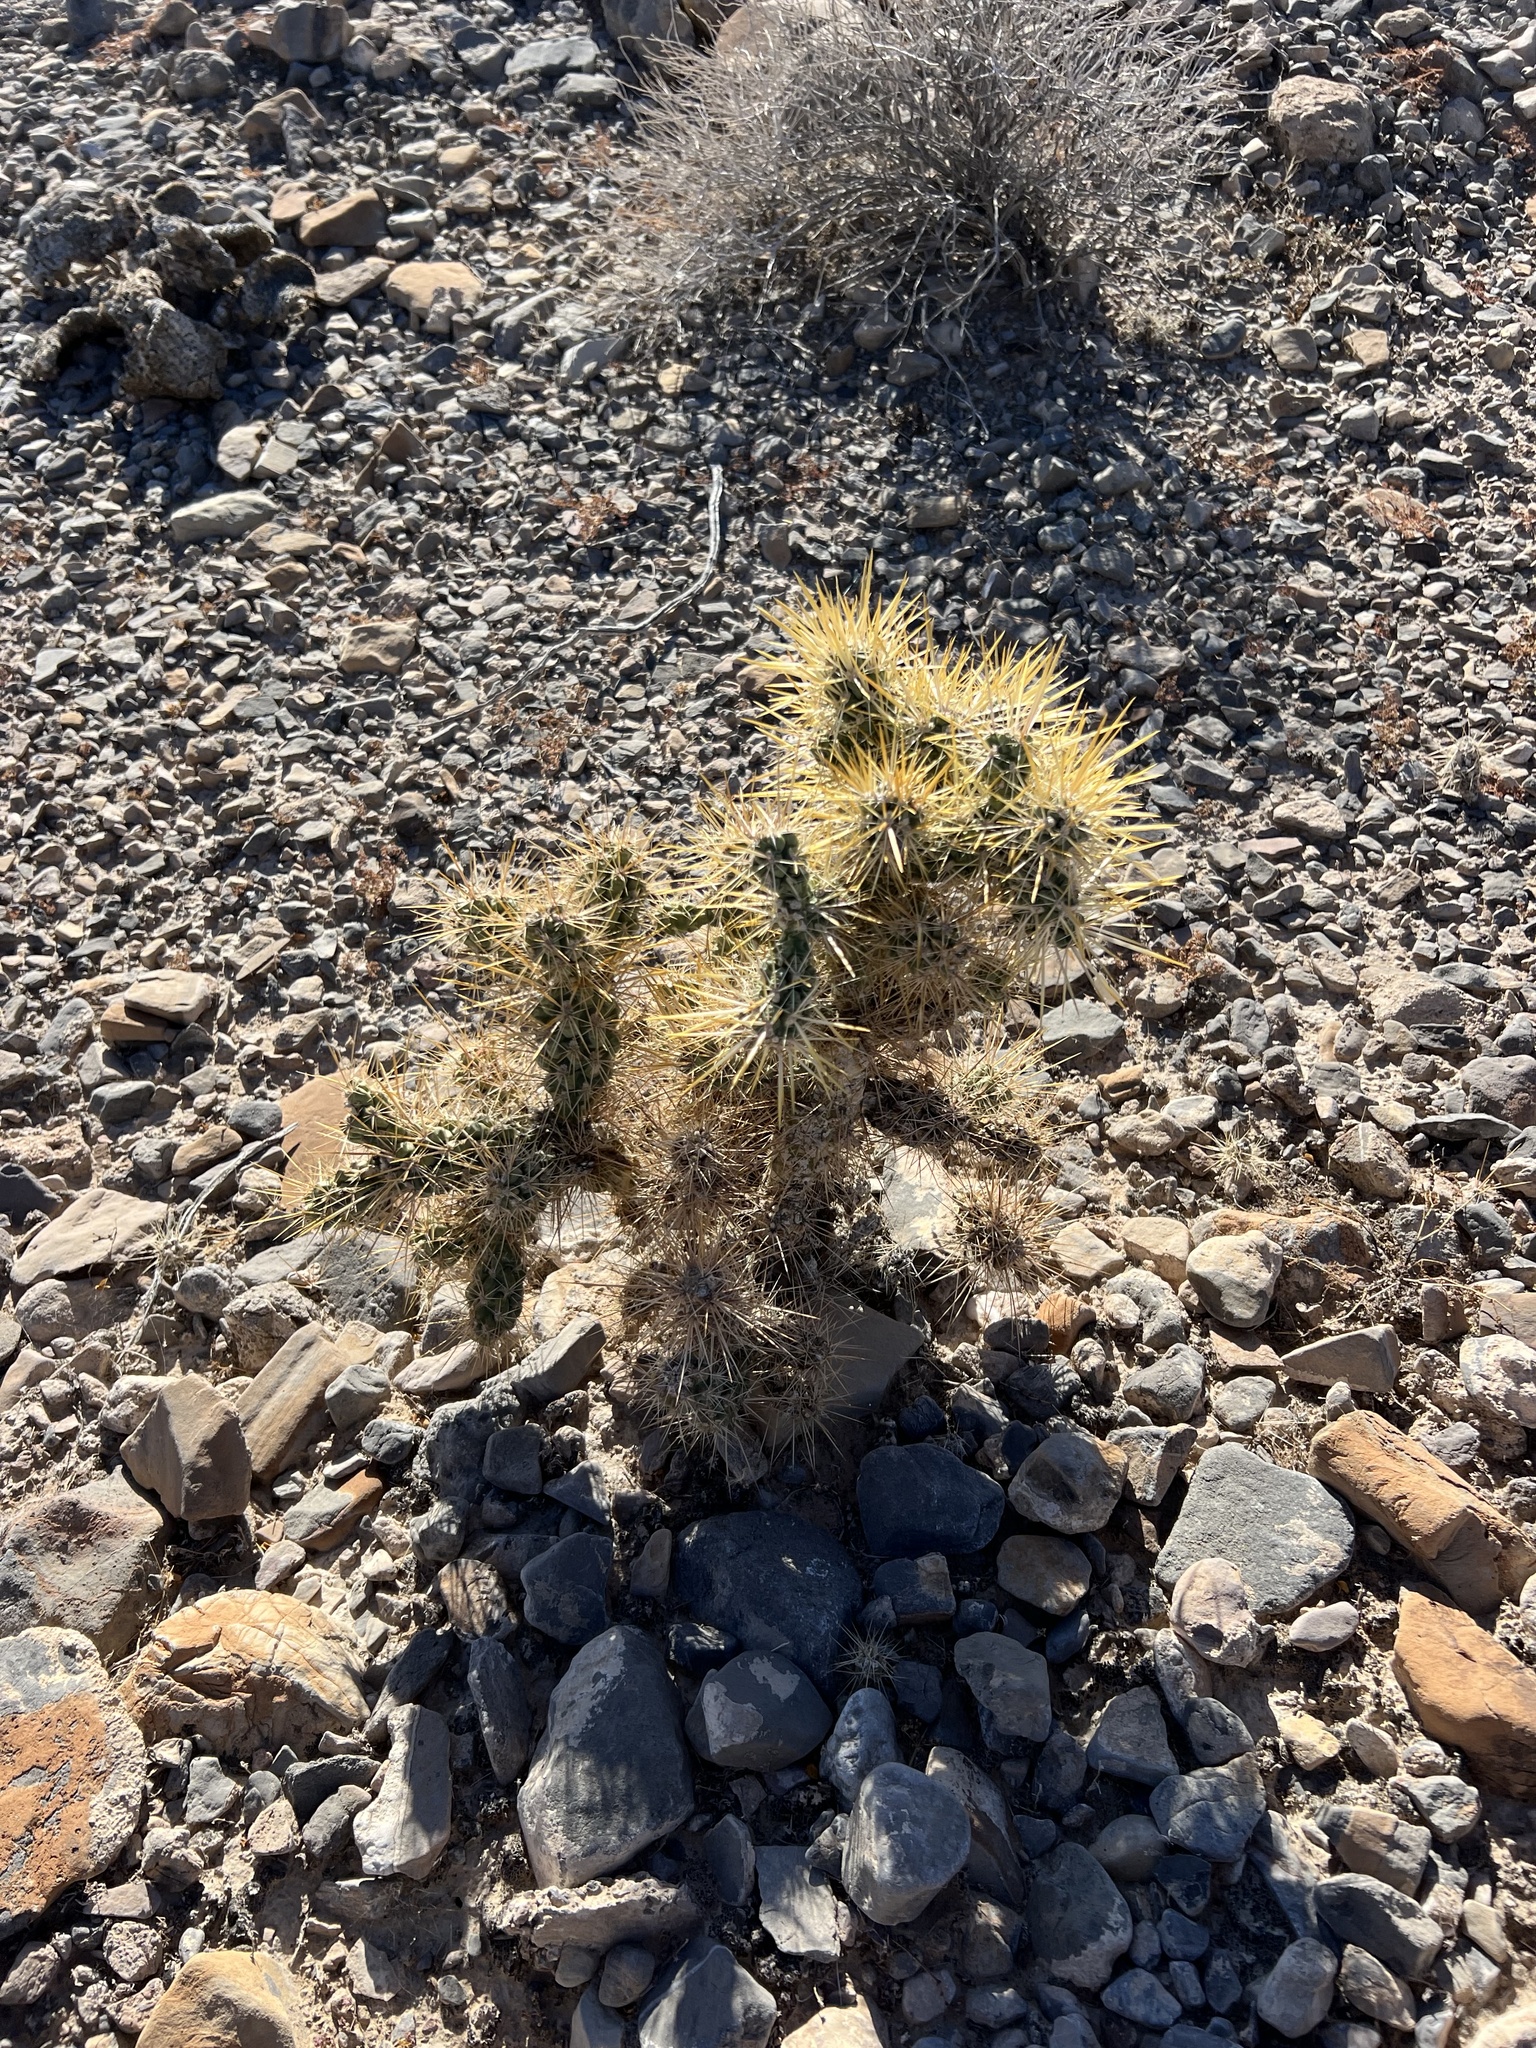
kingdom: Plantae
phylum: Tracheophyta
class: Magnoliopsida
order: Caryophyllales
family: Cactaceae
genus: Cylindropuntia
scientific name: Cylindropuntia echinocarpa
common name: Ground cholla
